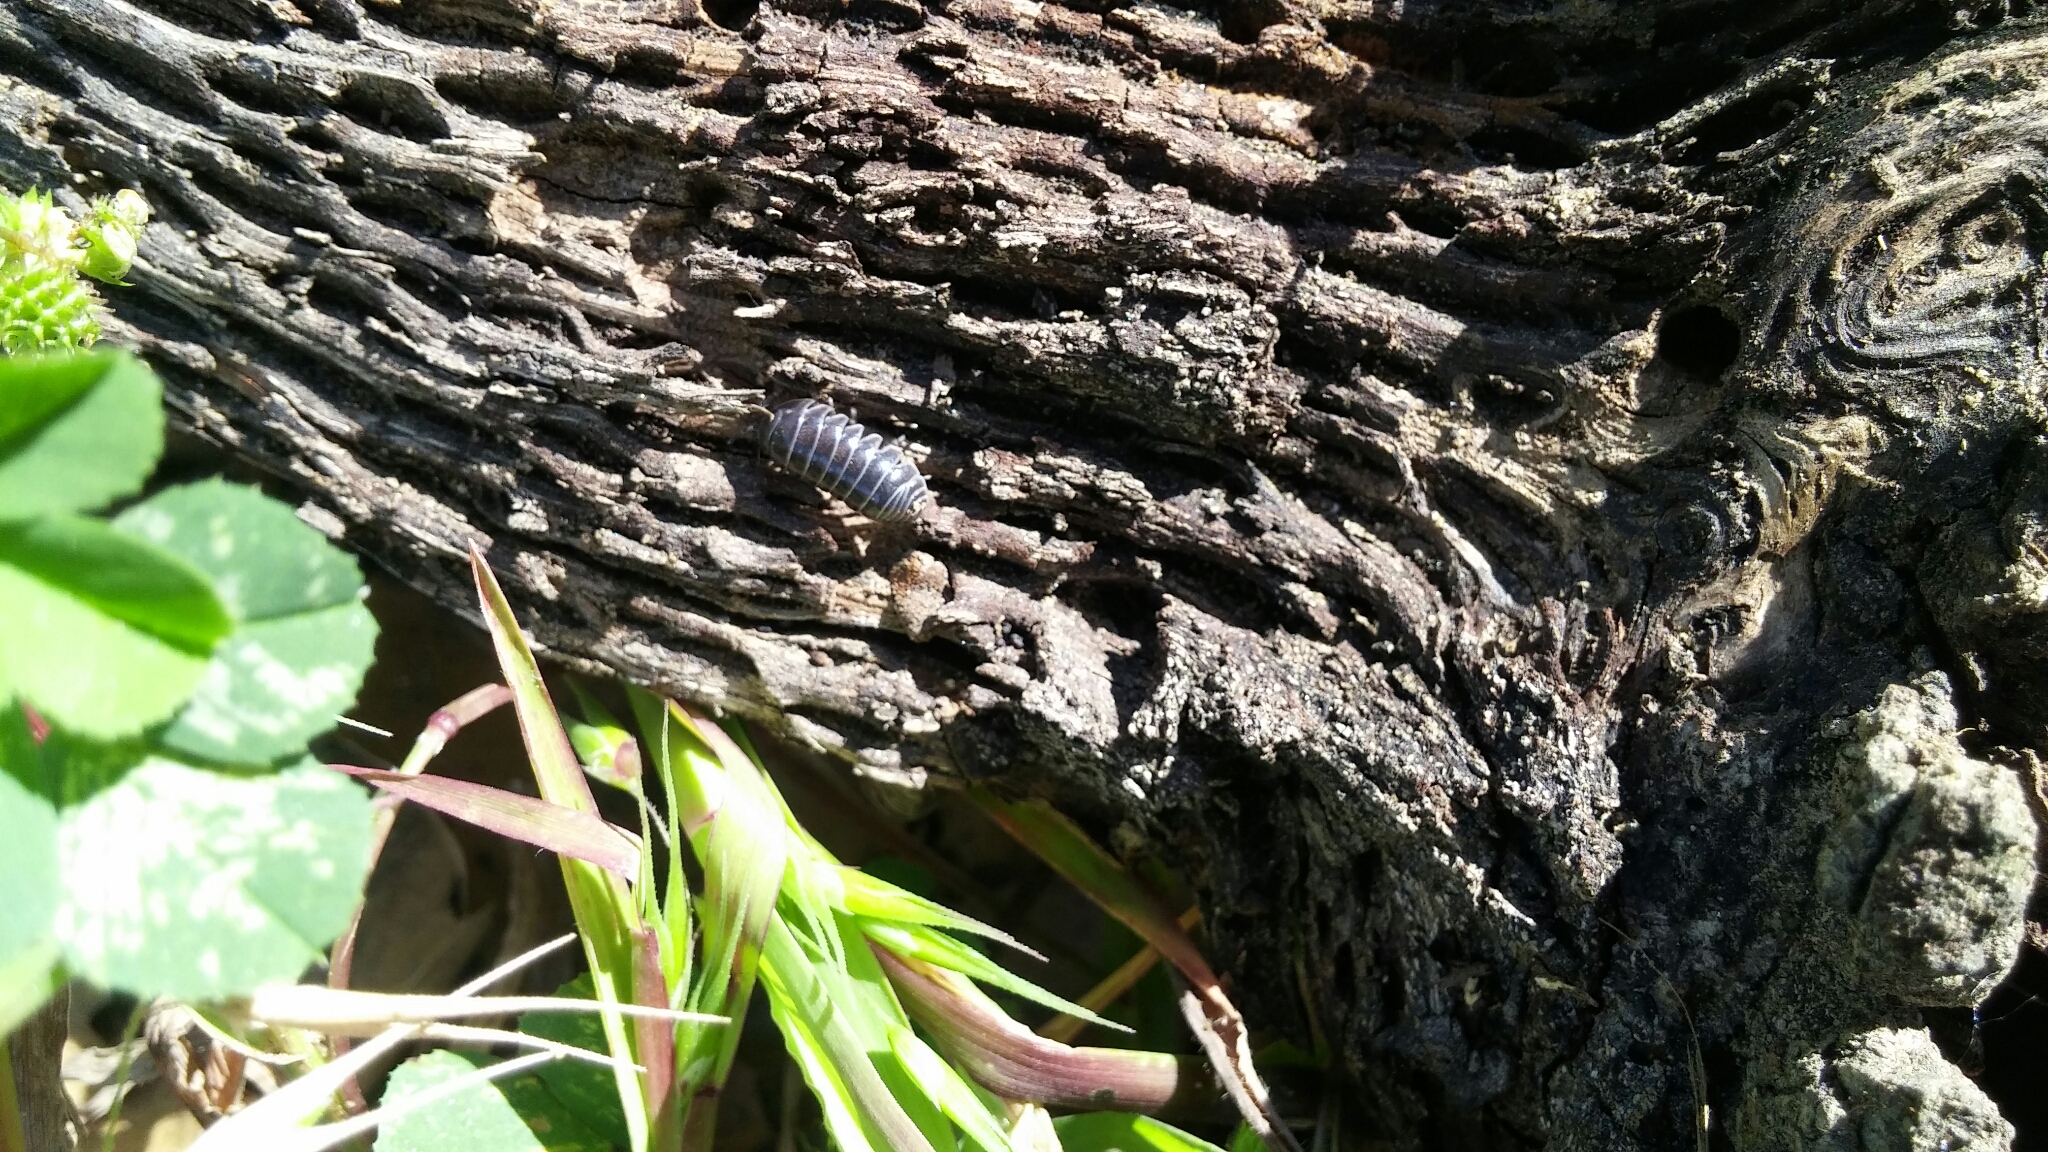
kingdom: Animalia
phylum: Arthropoda
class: Malacostraca
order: Isopoda
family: Armadillidiidae
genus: Armadillidium
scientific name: Armadillidium vulgare
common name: Common pill woodlouse
